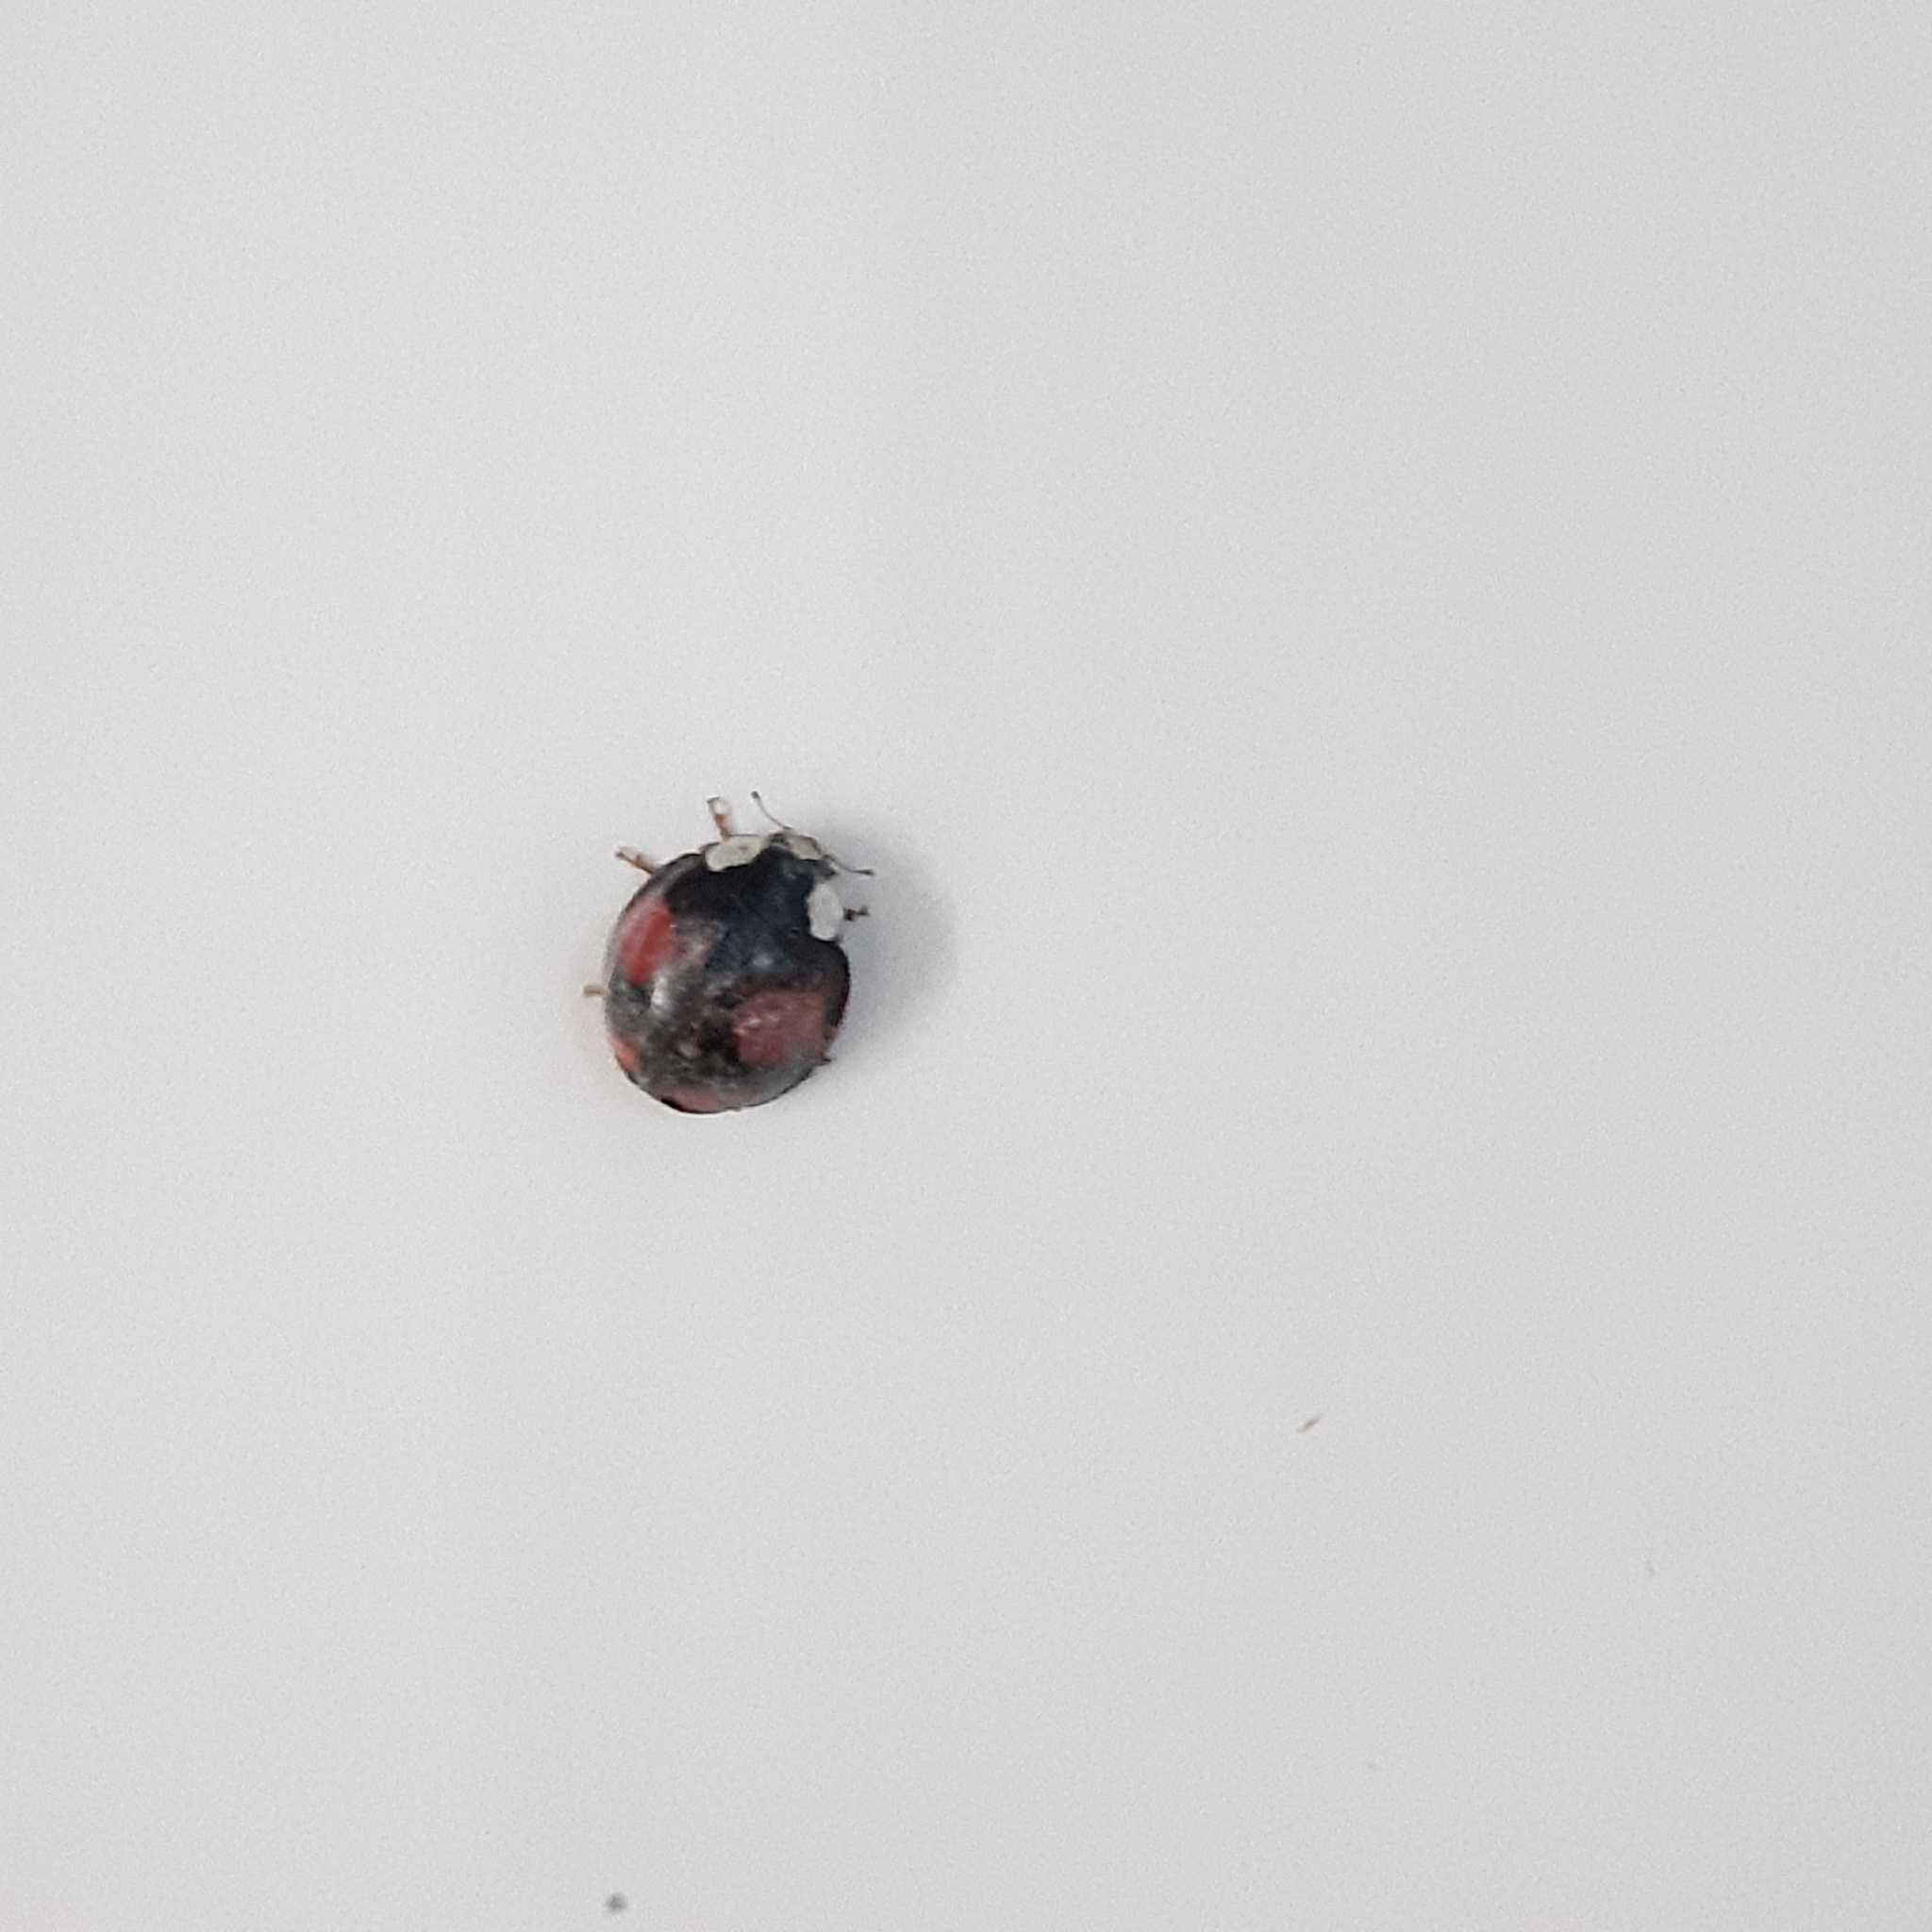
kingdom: Animalia
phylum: Arthropoda
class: Insecta
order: Coleoptera
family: Coccinellidae
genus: Harmonia
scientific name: Harmonia axyridis
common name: Harlequin ladybird
